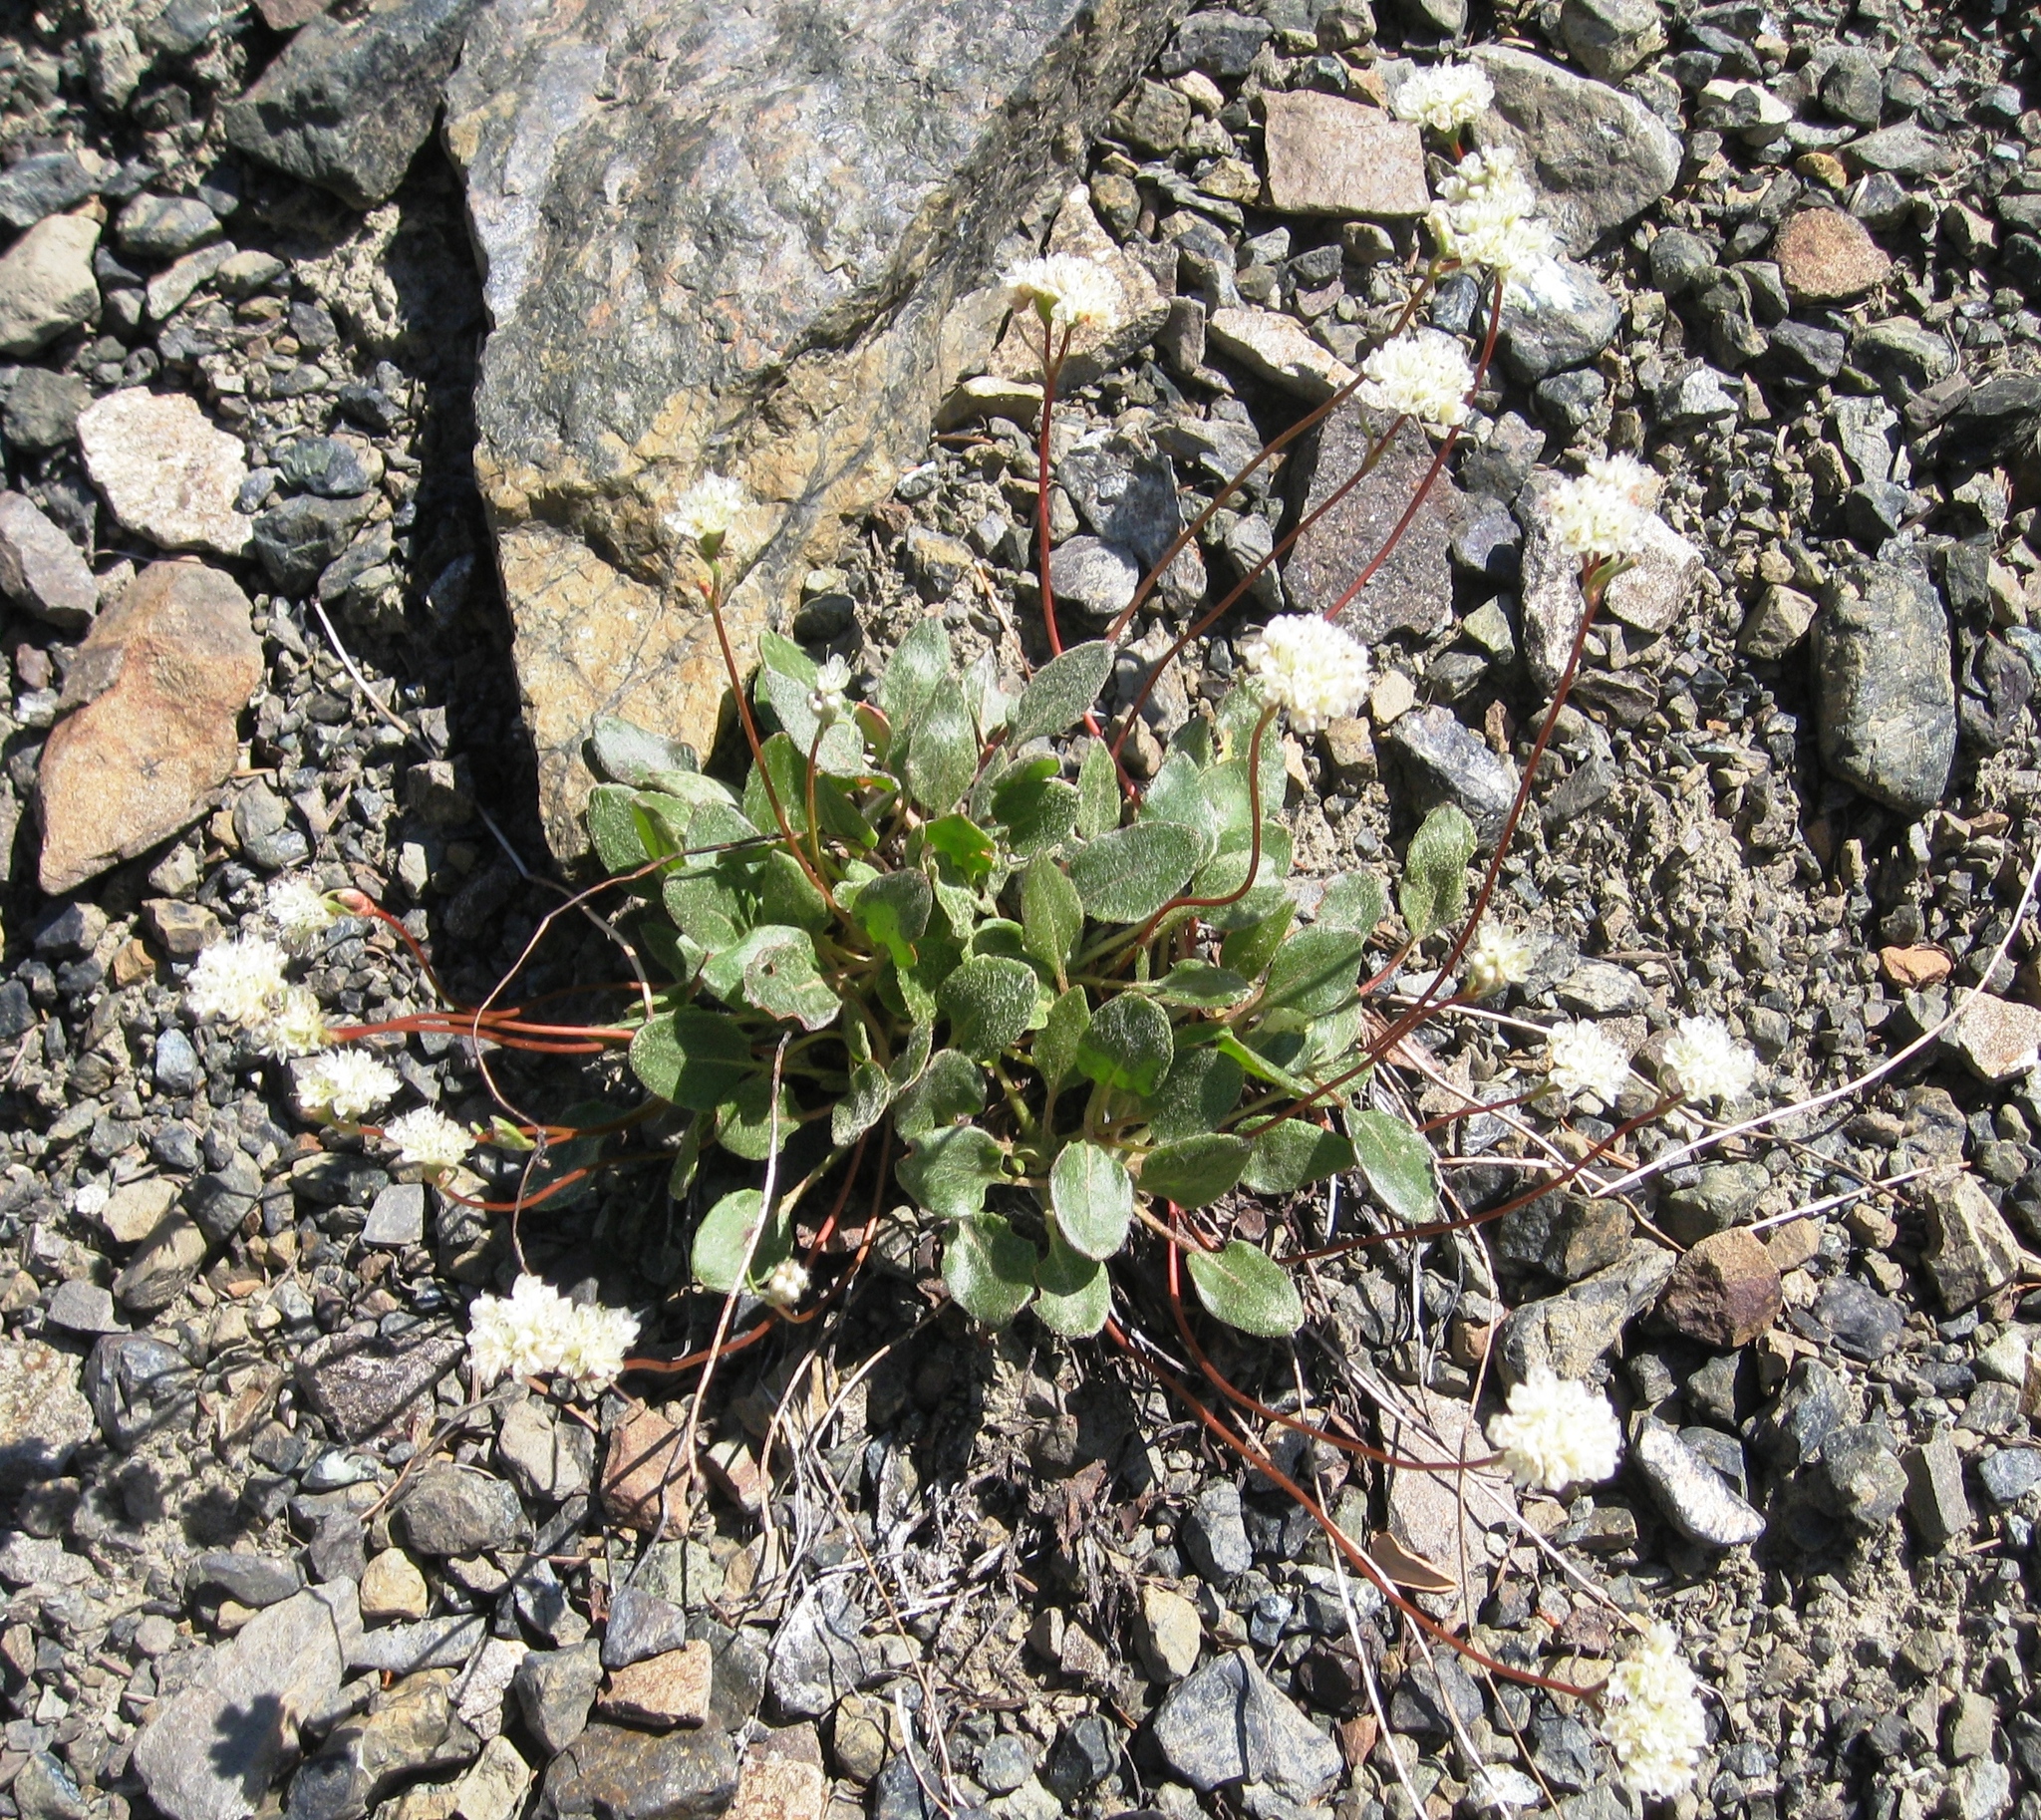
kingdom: Plantae
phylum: Tracheophyta
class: Magnoliopsida
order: Caryophyllales
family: Polygonaceae
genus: Eriogonum
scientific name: Eriogonum pyrolifolium
